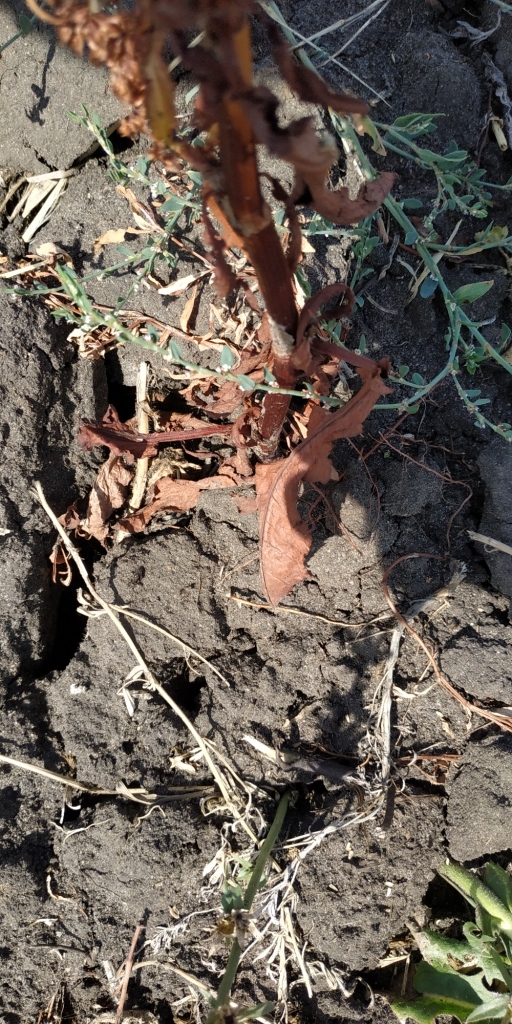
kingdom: Plantae
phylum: Tracheophyta
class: Magnoliopsida
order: Caryophyllales
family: Polygonaceae
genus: Rumex
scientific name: Rumex stenophyllus
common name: Narrowleaf dock
